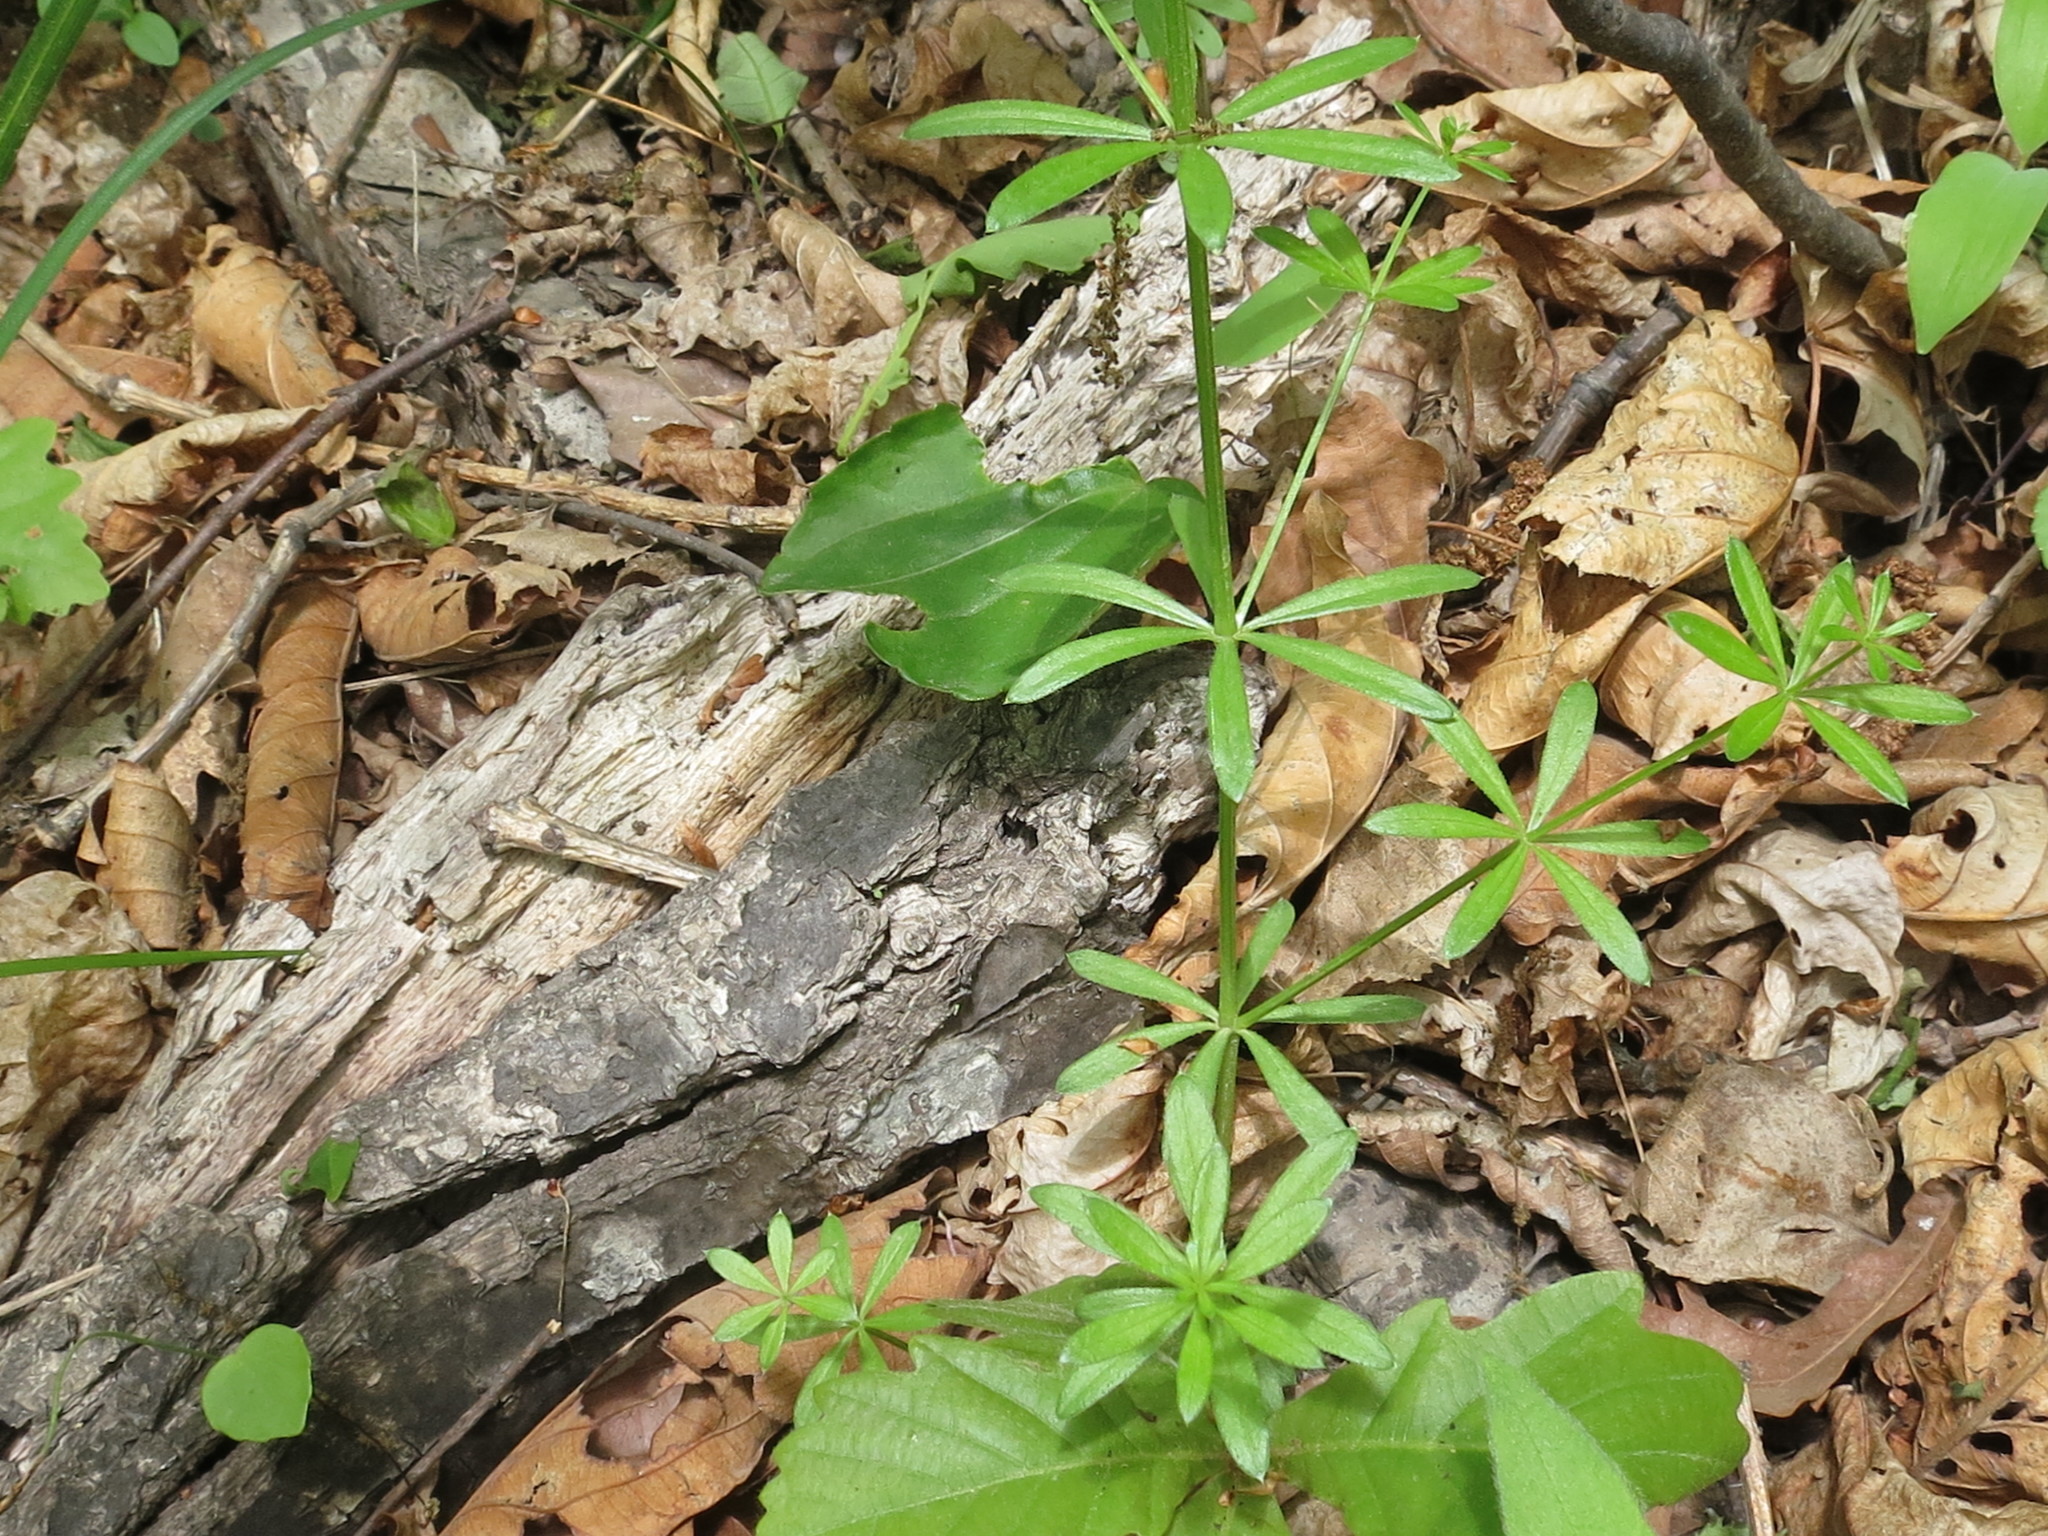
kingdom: Plantae
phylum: Tracheophyta
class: Magnoliopsida
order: Gentianales
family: Rubiaceae
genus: Galium
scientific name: Galium dahuricum
